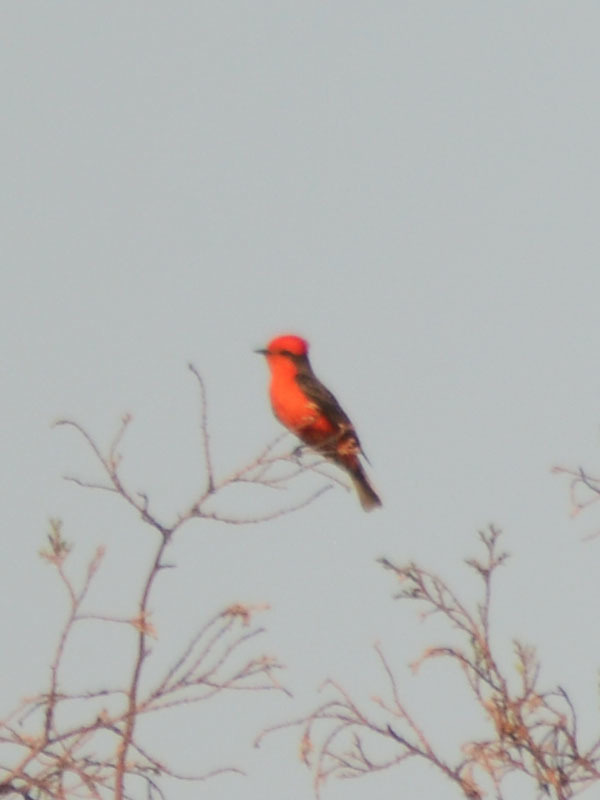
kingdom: Animalia
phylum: Chordata
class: Aves
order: Passeriformes
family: Tyrannidae
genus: Pyrocephalus
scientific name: Pyrocephalus rubinus
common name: Vermilion flycatcher
